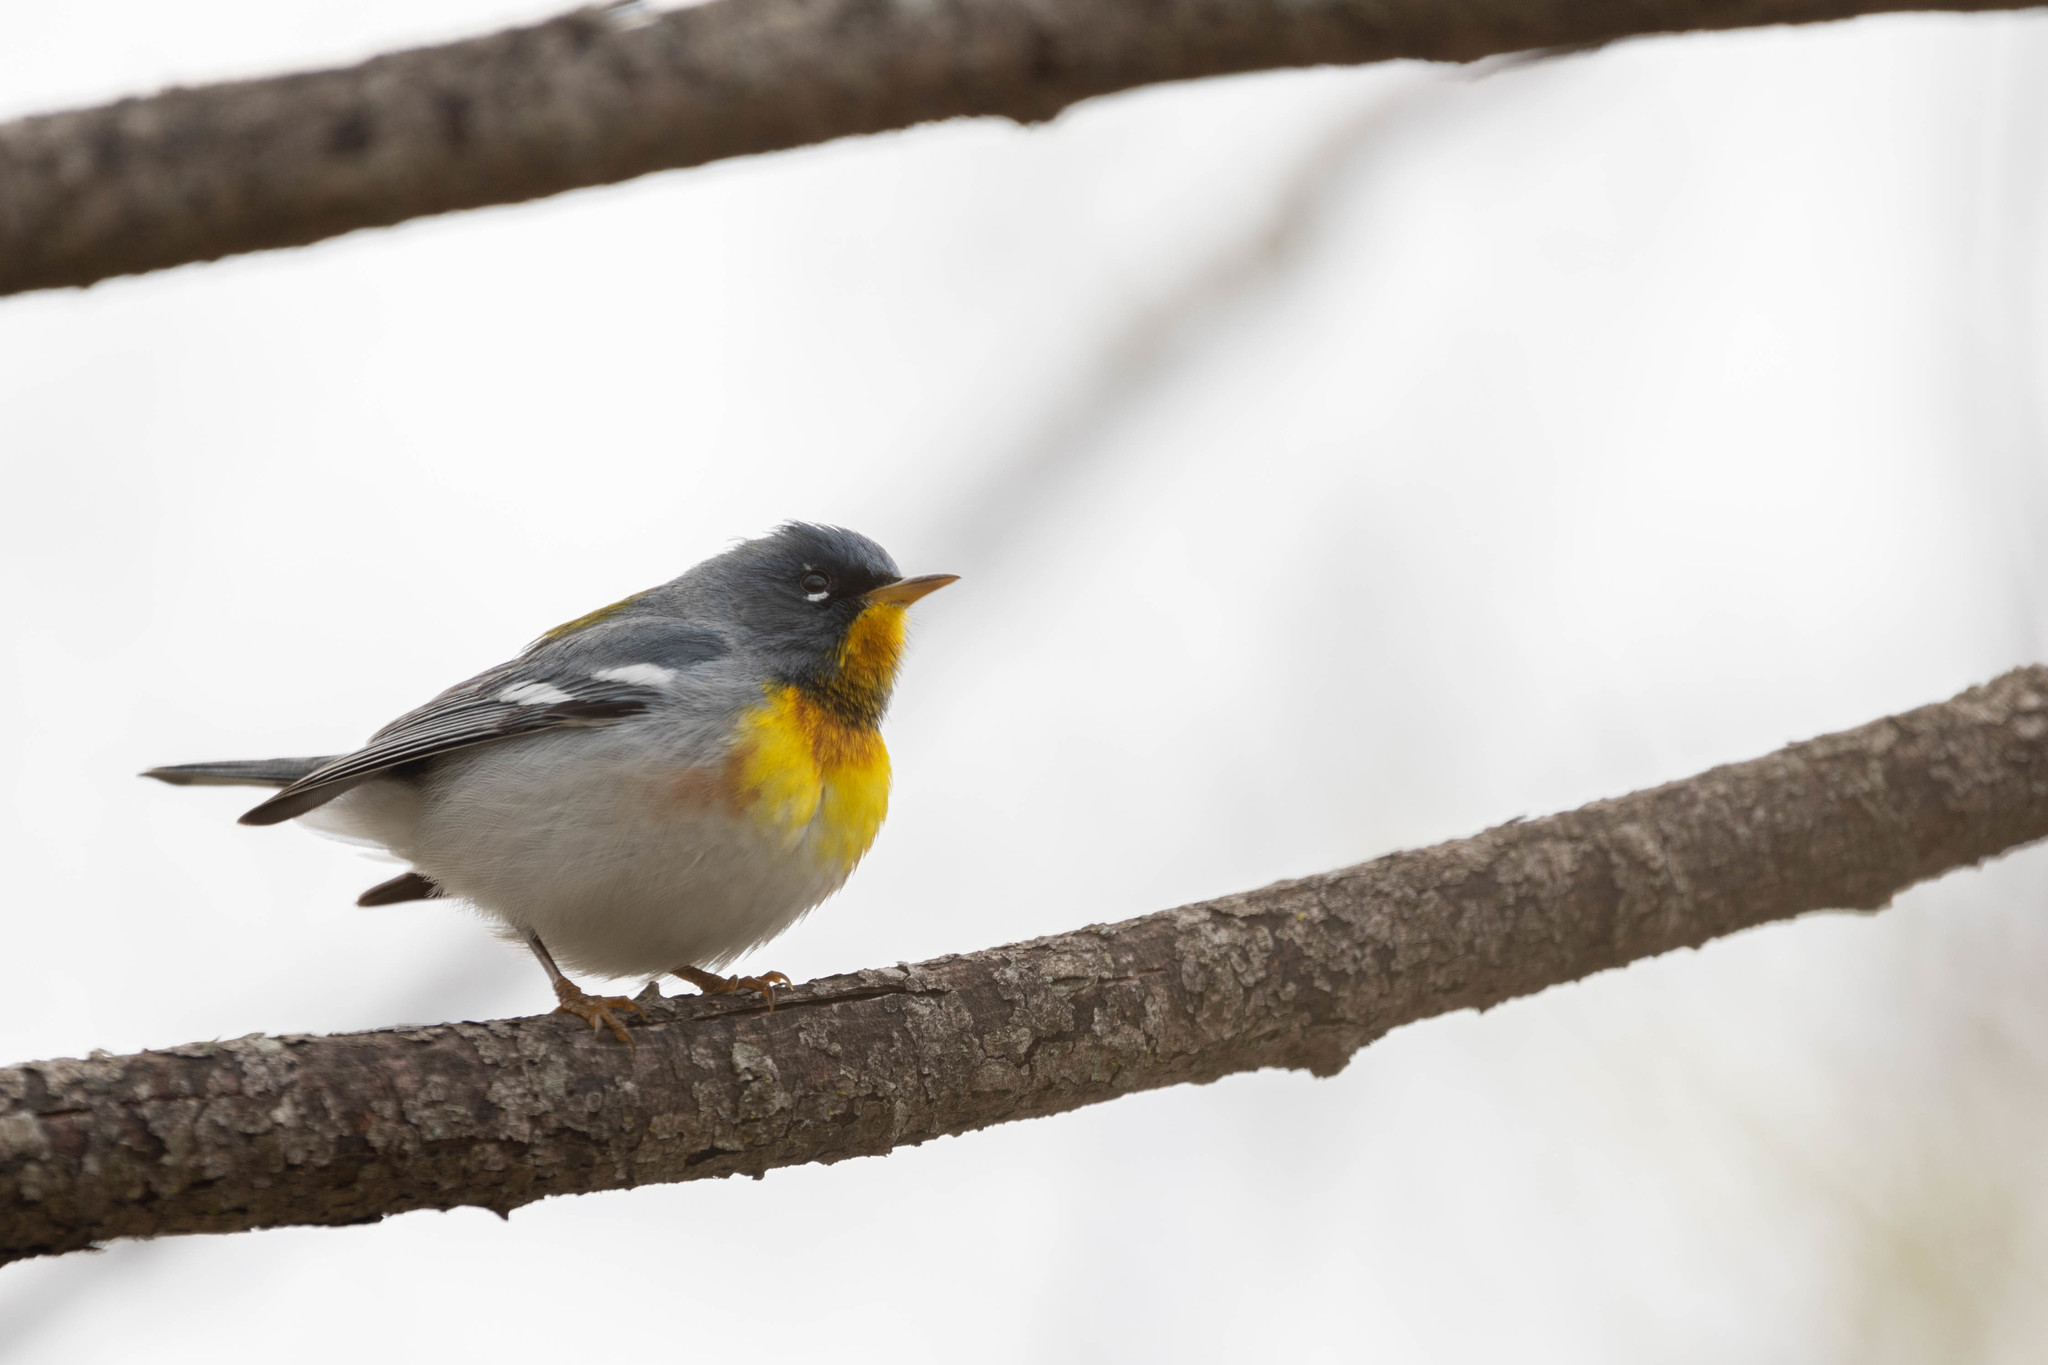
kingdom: Animalia
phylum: Chordata
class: Aves
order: Passeriformes
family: Parulidae
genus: Setophaga
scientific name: Setophaga americana
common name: Northern parula
